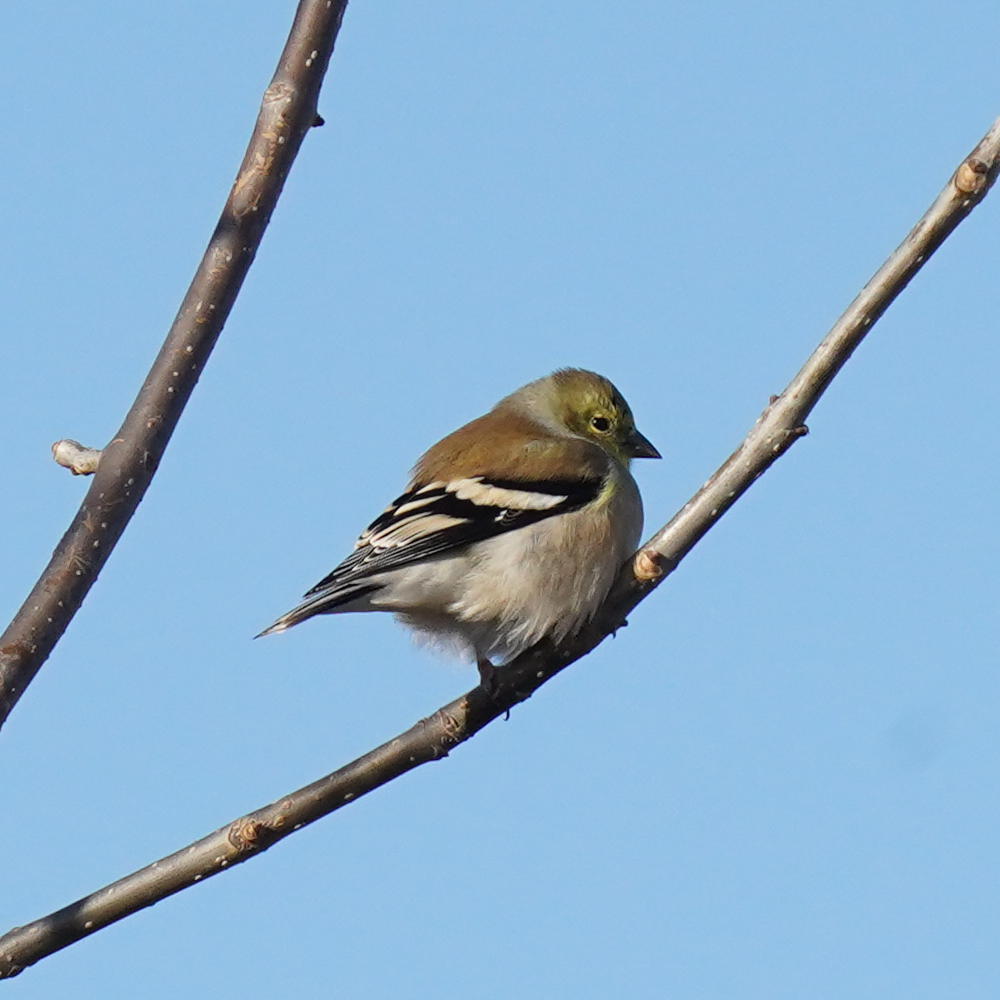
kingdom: Animalia
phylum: Chordata
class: Aves
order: Passeriformes
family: Fringillidae
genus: Spinus
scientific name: Spinus tristis
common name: American goldfinch
